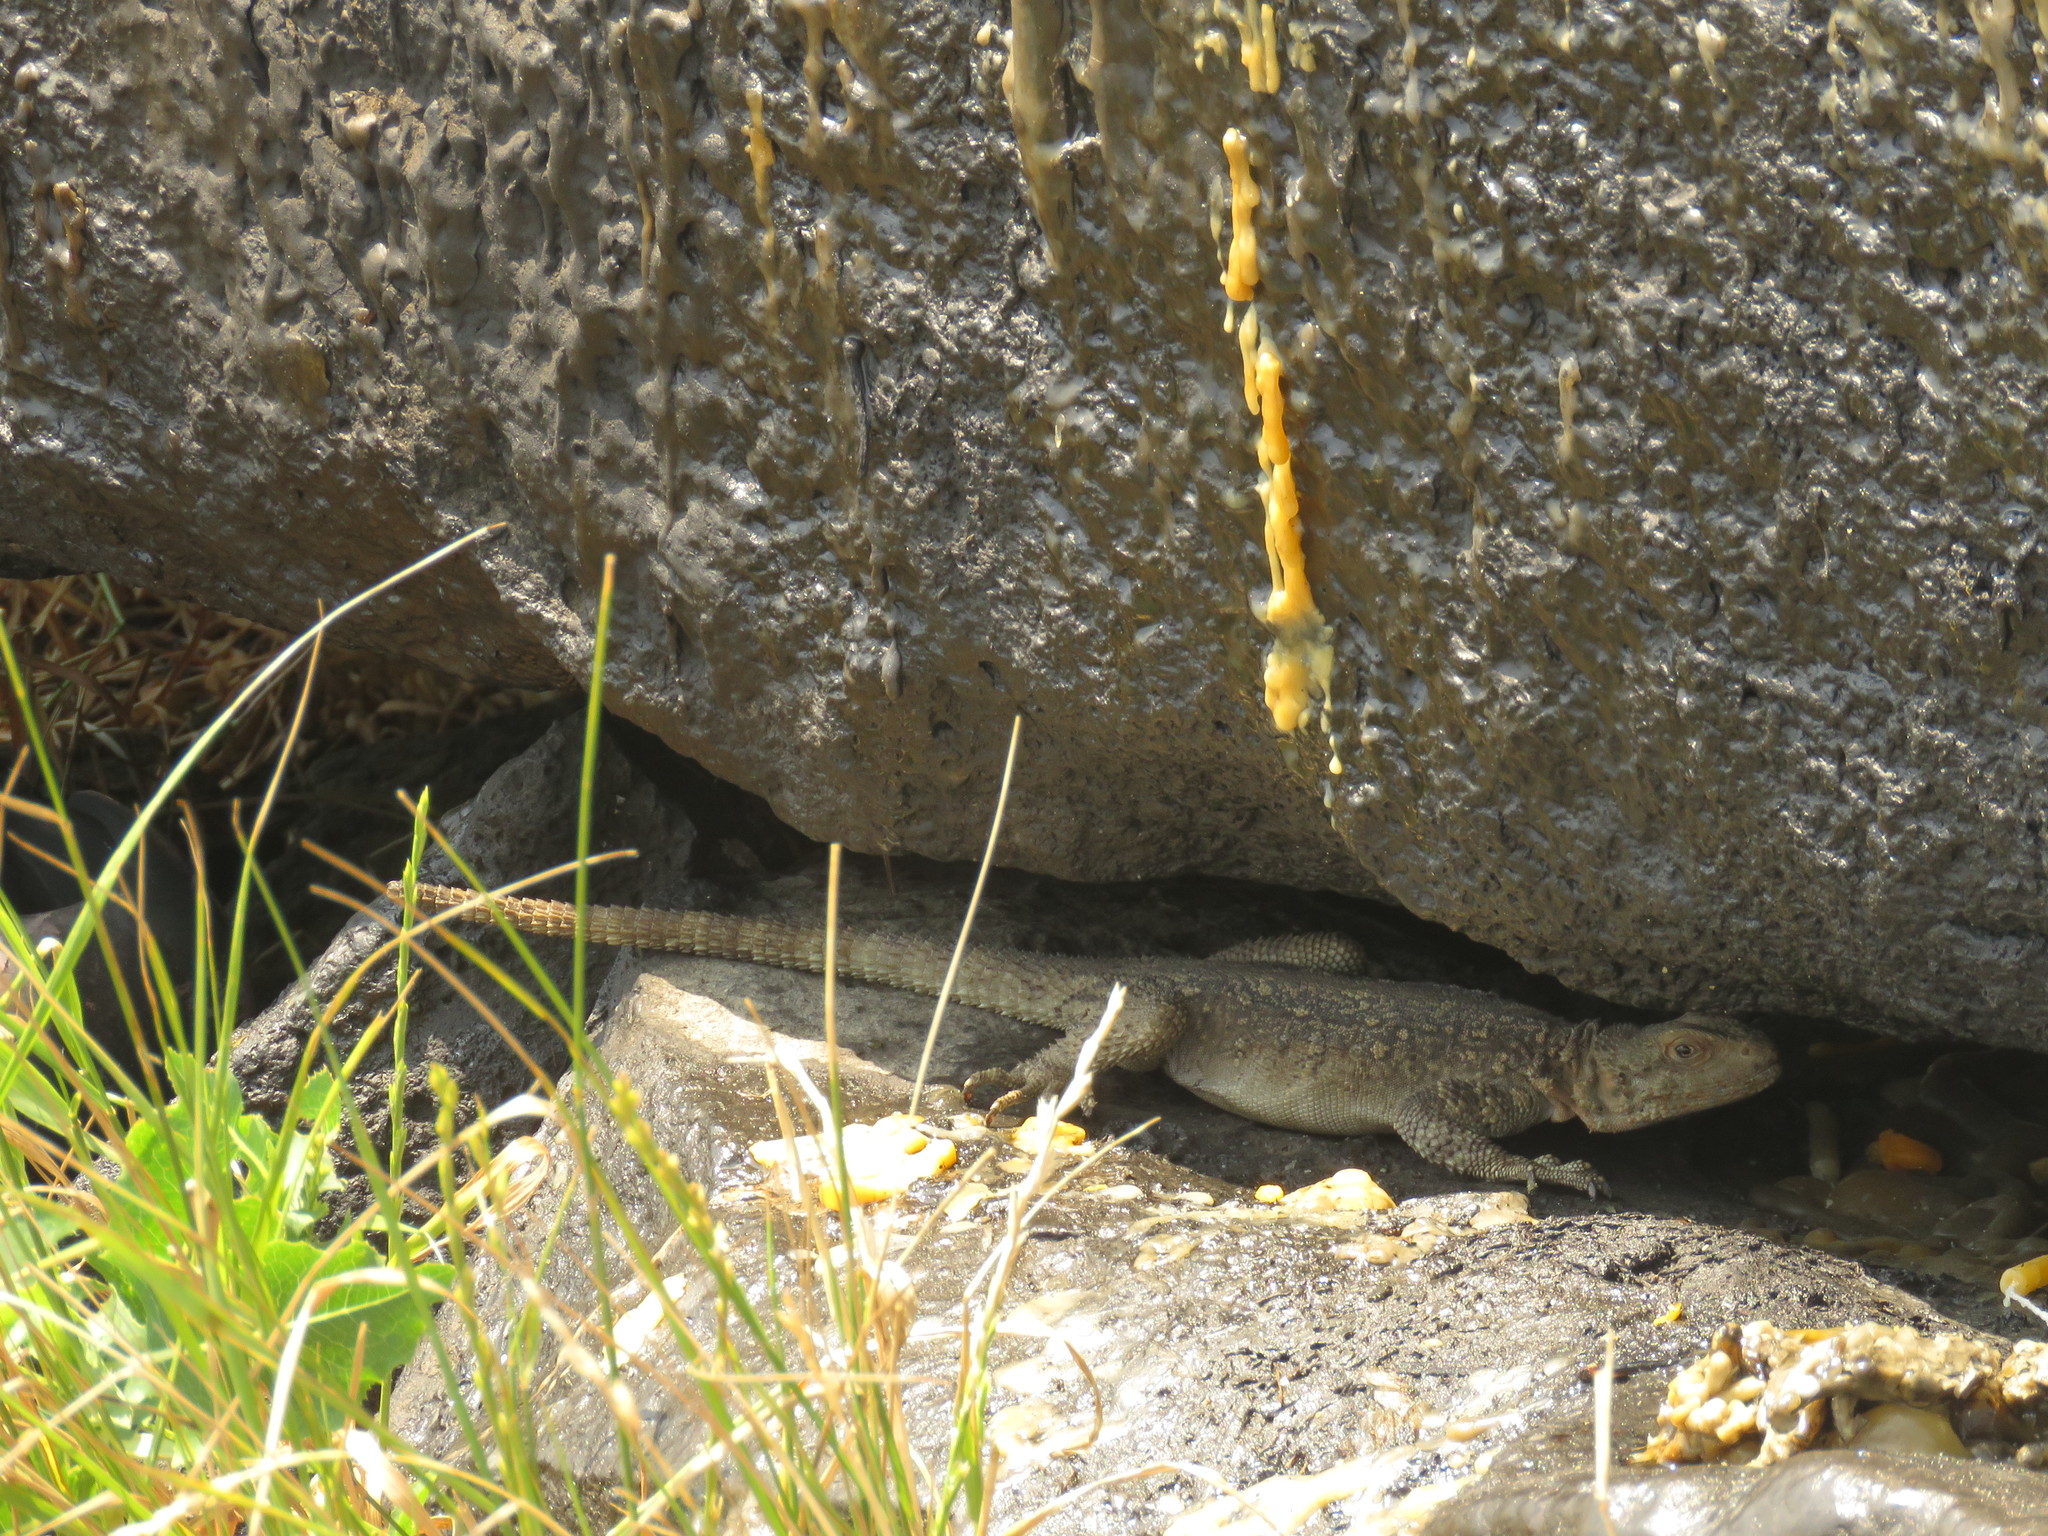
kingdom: Animalia
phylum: Chordata
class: Squamata
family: Agamidae
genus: Paralaudakia
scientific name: Paralaudakia caucasia
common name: Caucasian agama
